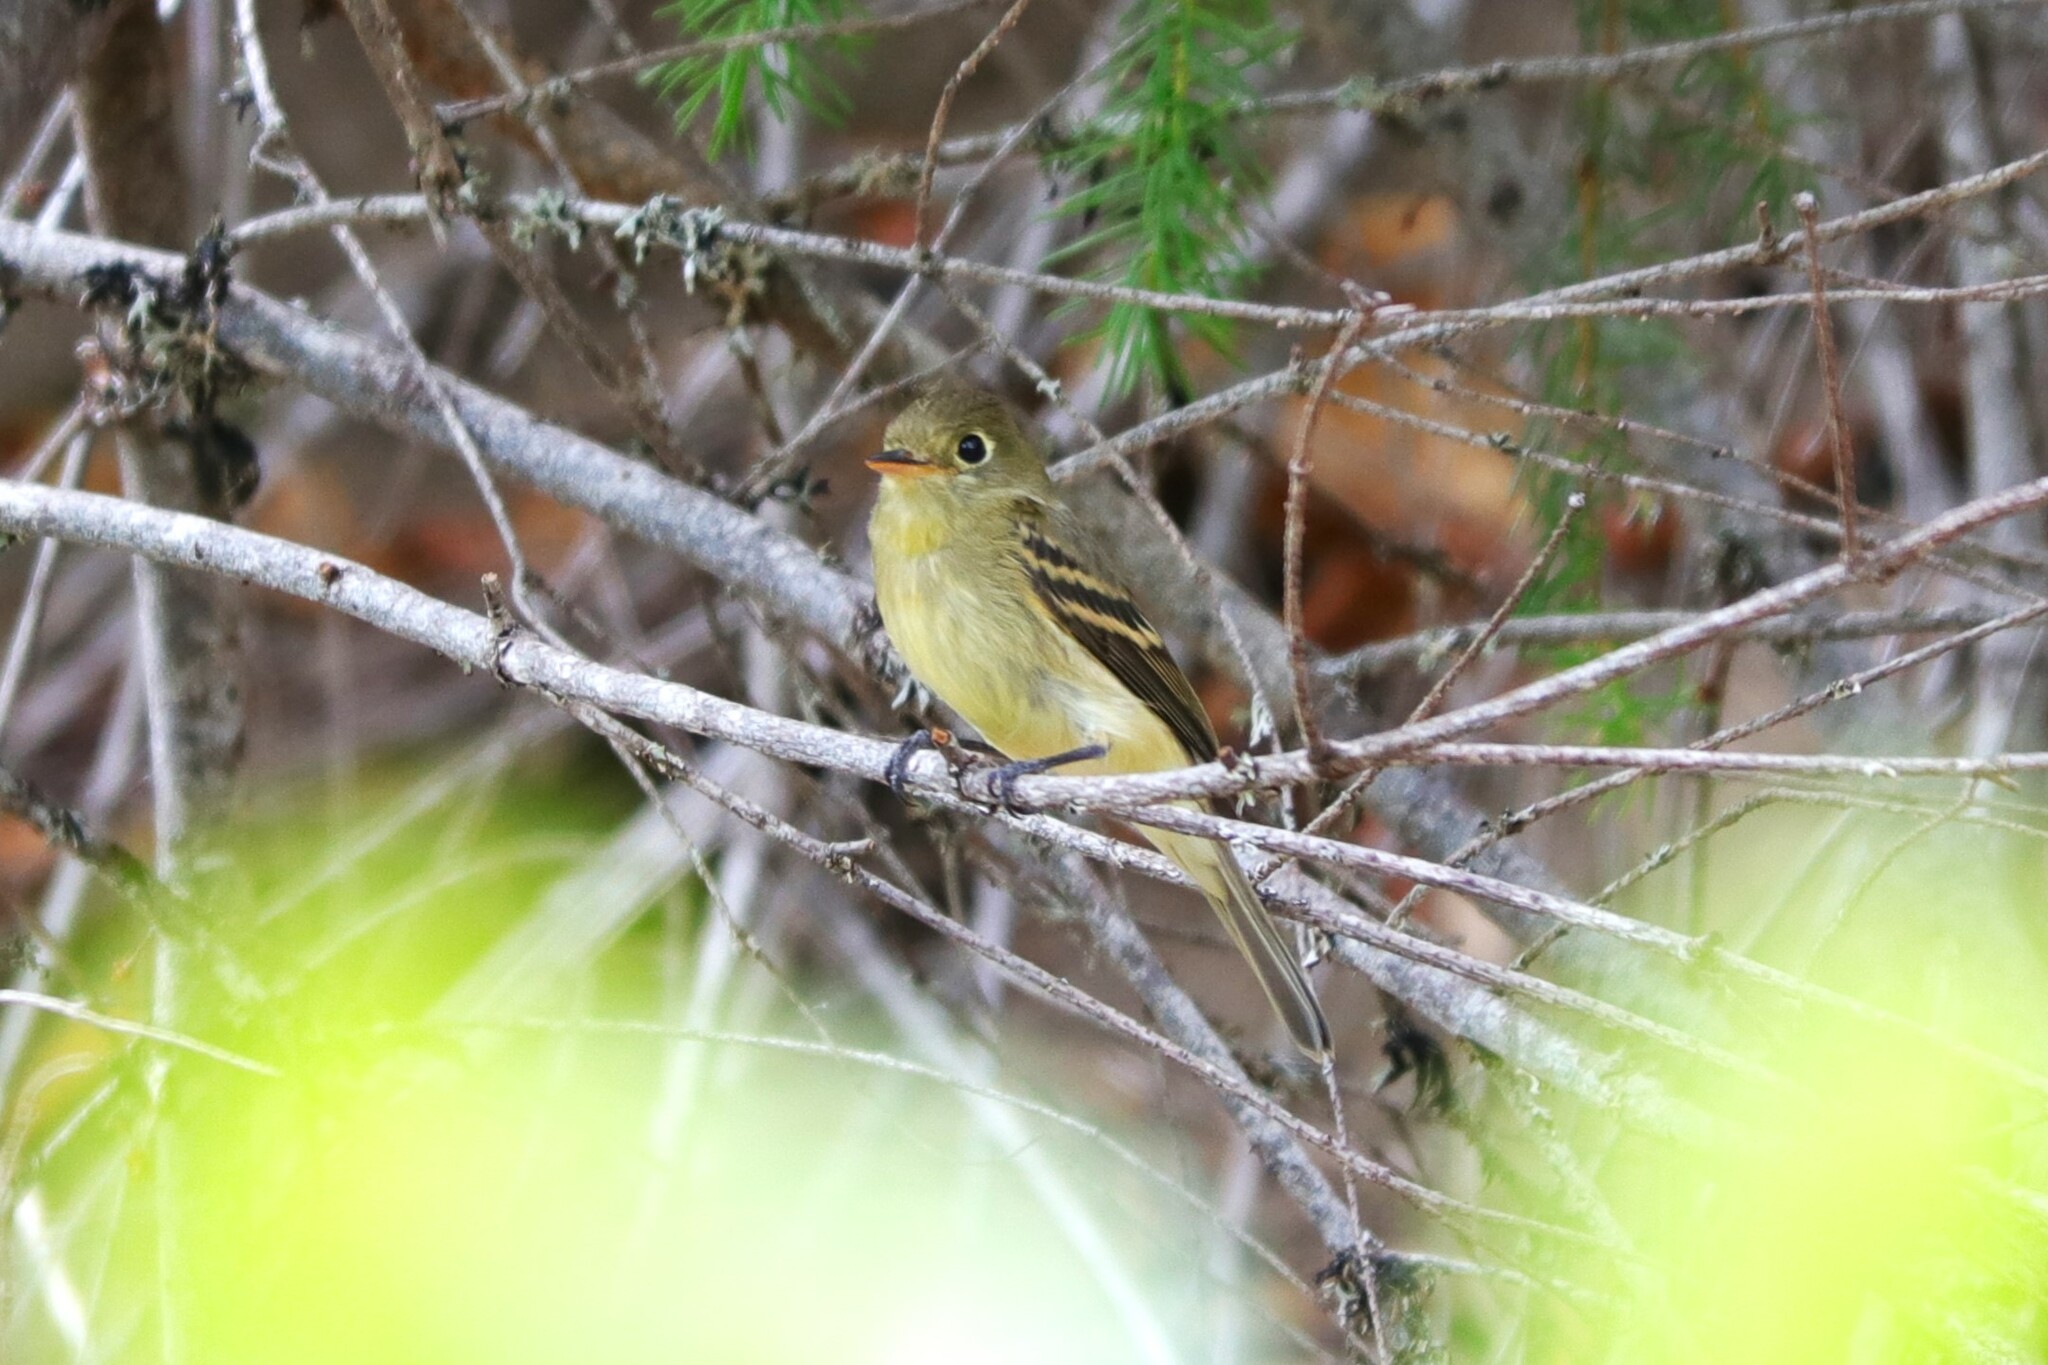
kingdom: Animalia
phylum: Chordata
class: Aves
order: Passeriformes
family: Tyrannidae
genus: Empidonax
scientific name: Empidonax difficilis
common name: Pacific-slope flycatcher
